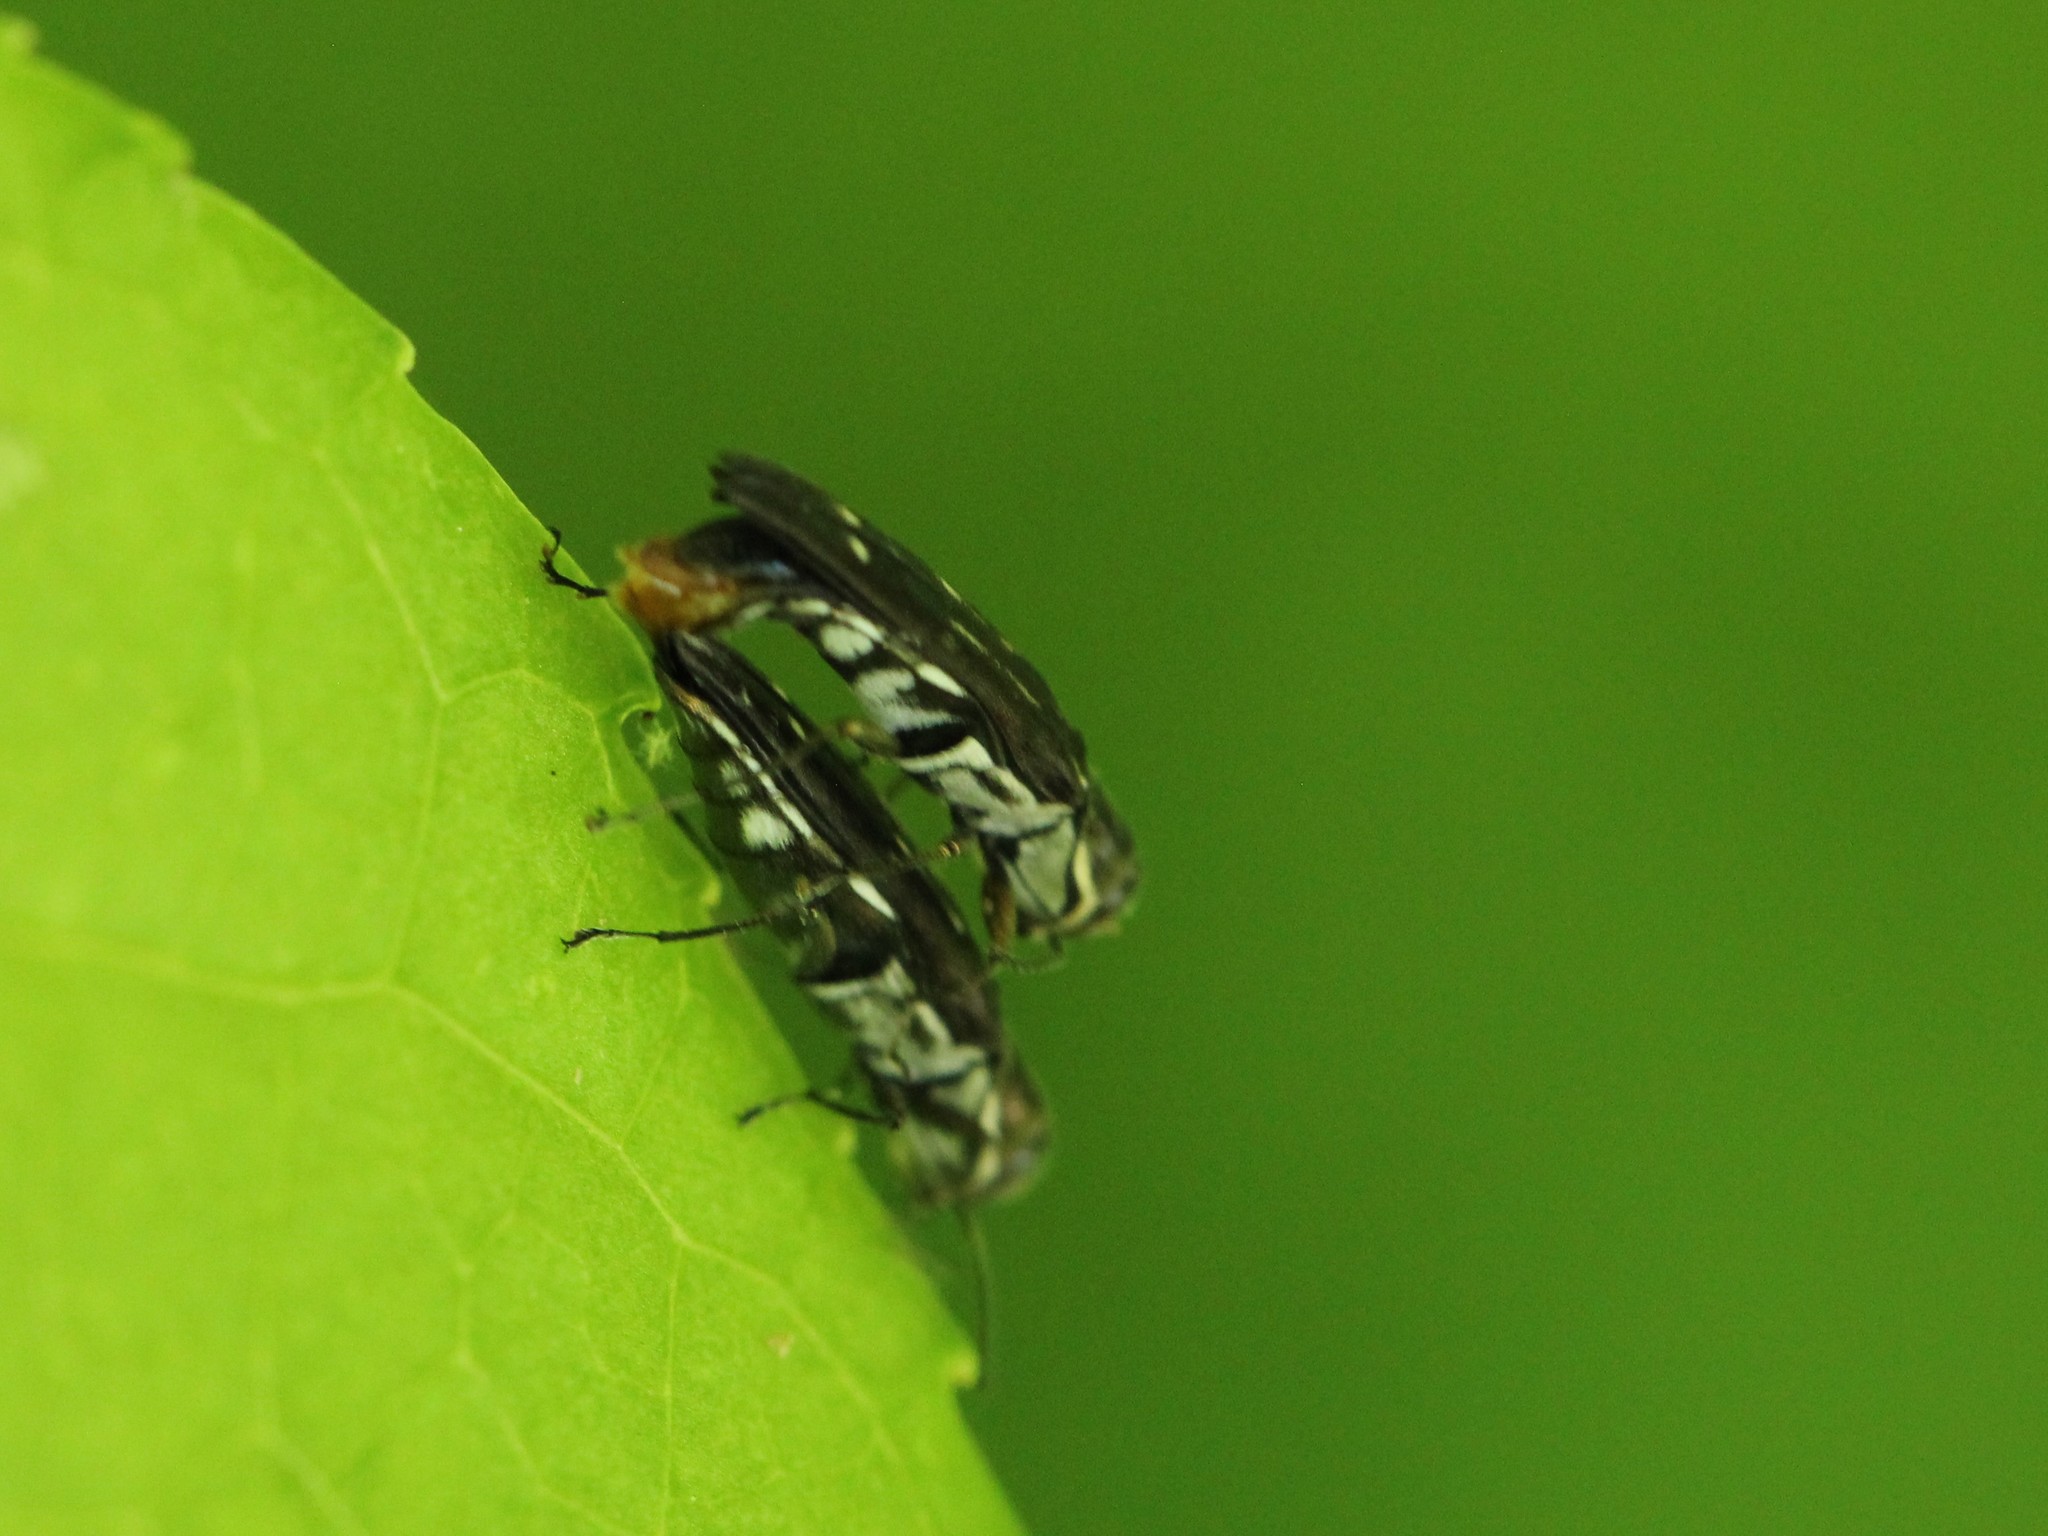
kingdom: Animalia
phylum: Arthropoda
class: Insecta
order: Coleoptera
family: Buprestidae
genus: Agrilus
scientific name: Agrilus obsoletoguttatus
